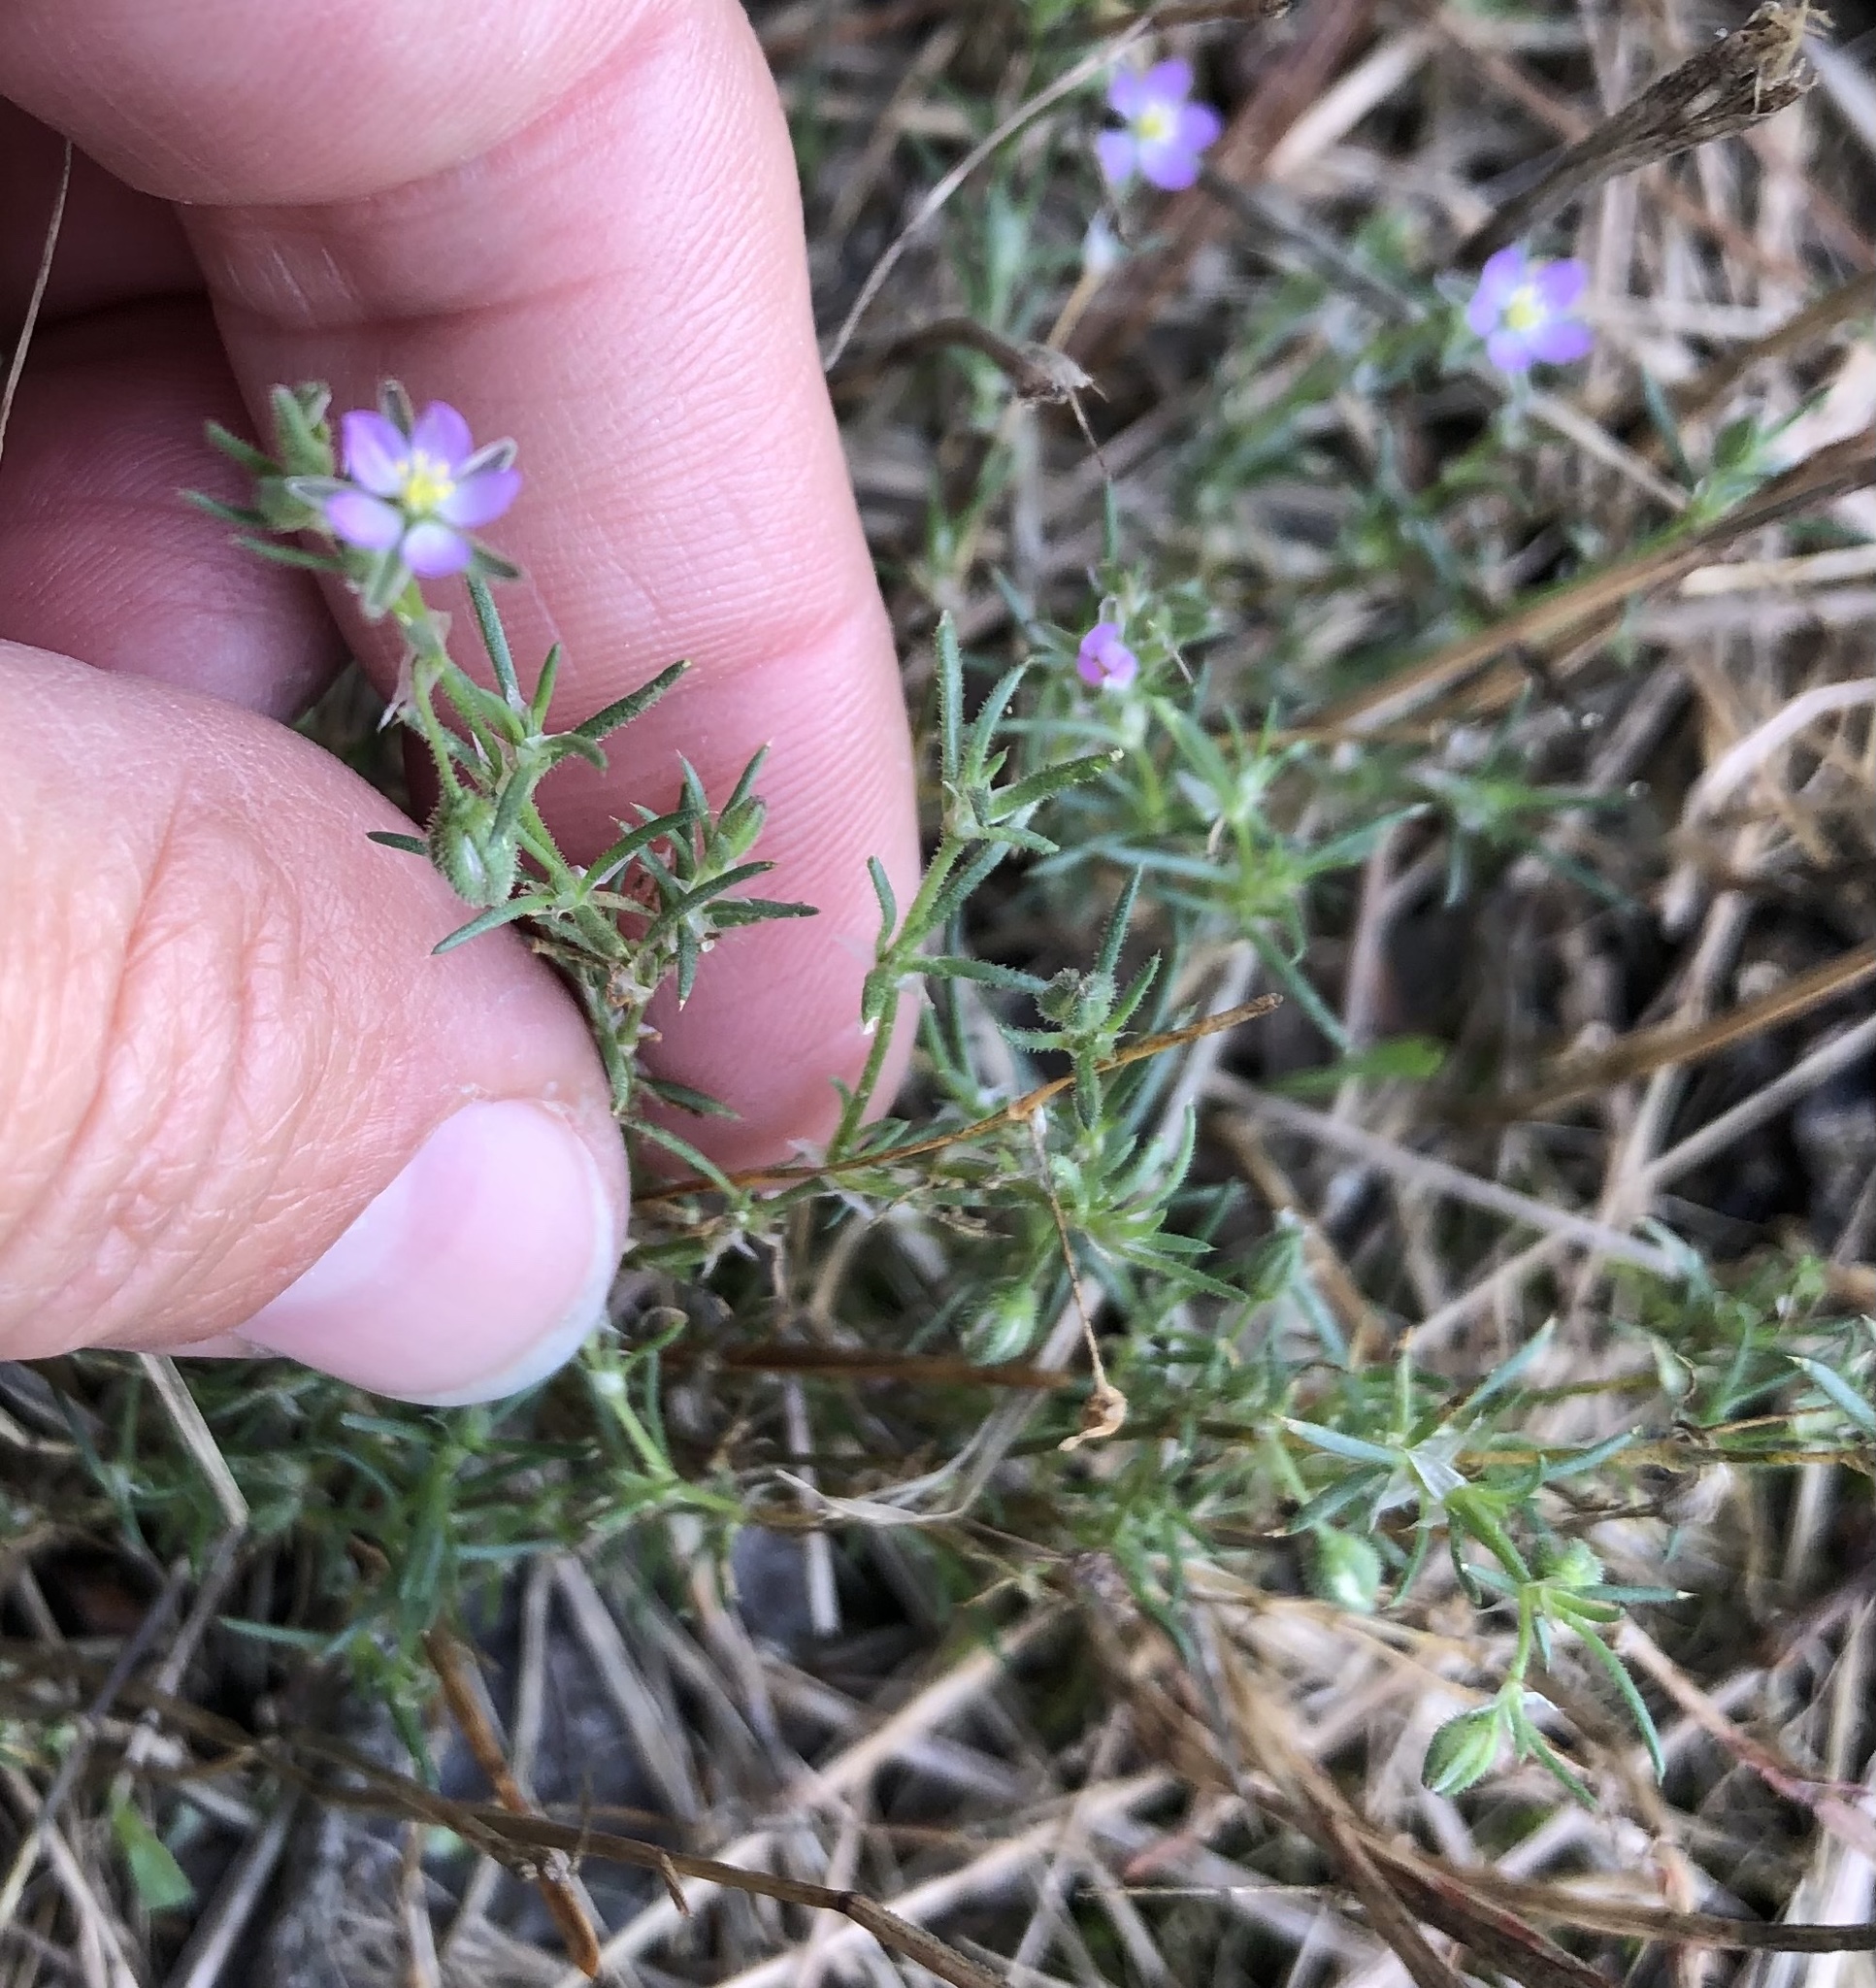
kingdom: Plantae
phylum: Tracheophyta
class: Magnoliopsida
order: Caryophyllales
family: Caryophyllaceae
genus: Spergularia
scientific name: Spergularia rubra
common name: Red sand-spurrey
